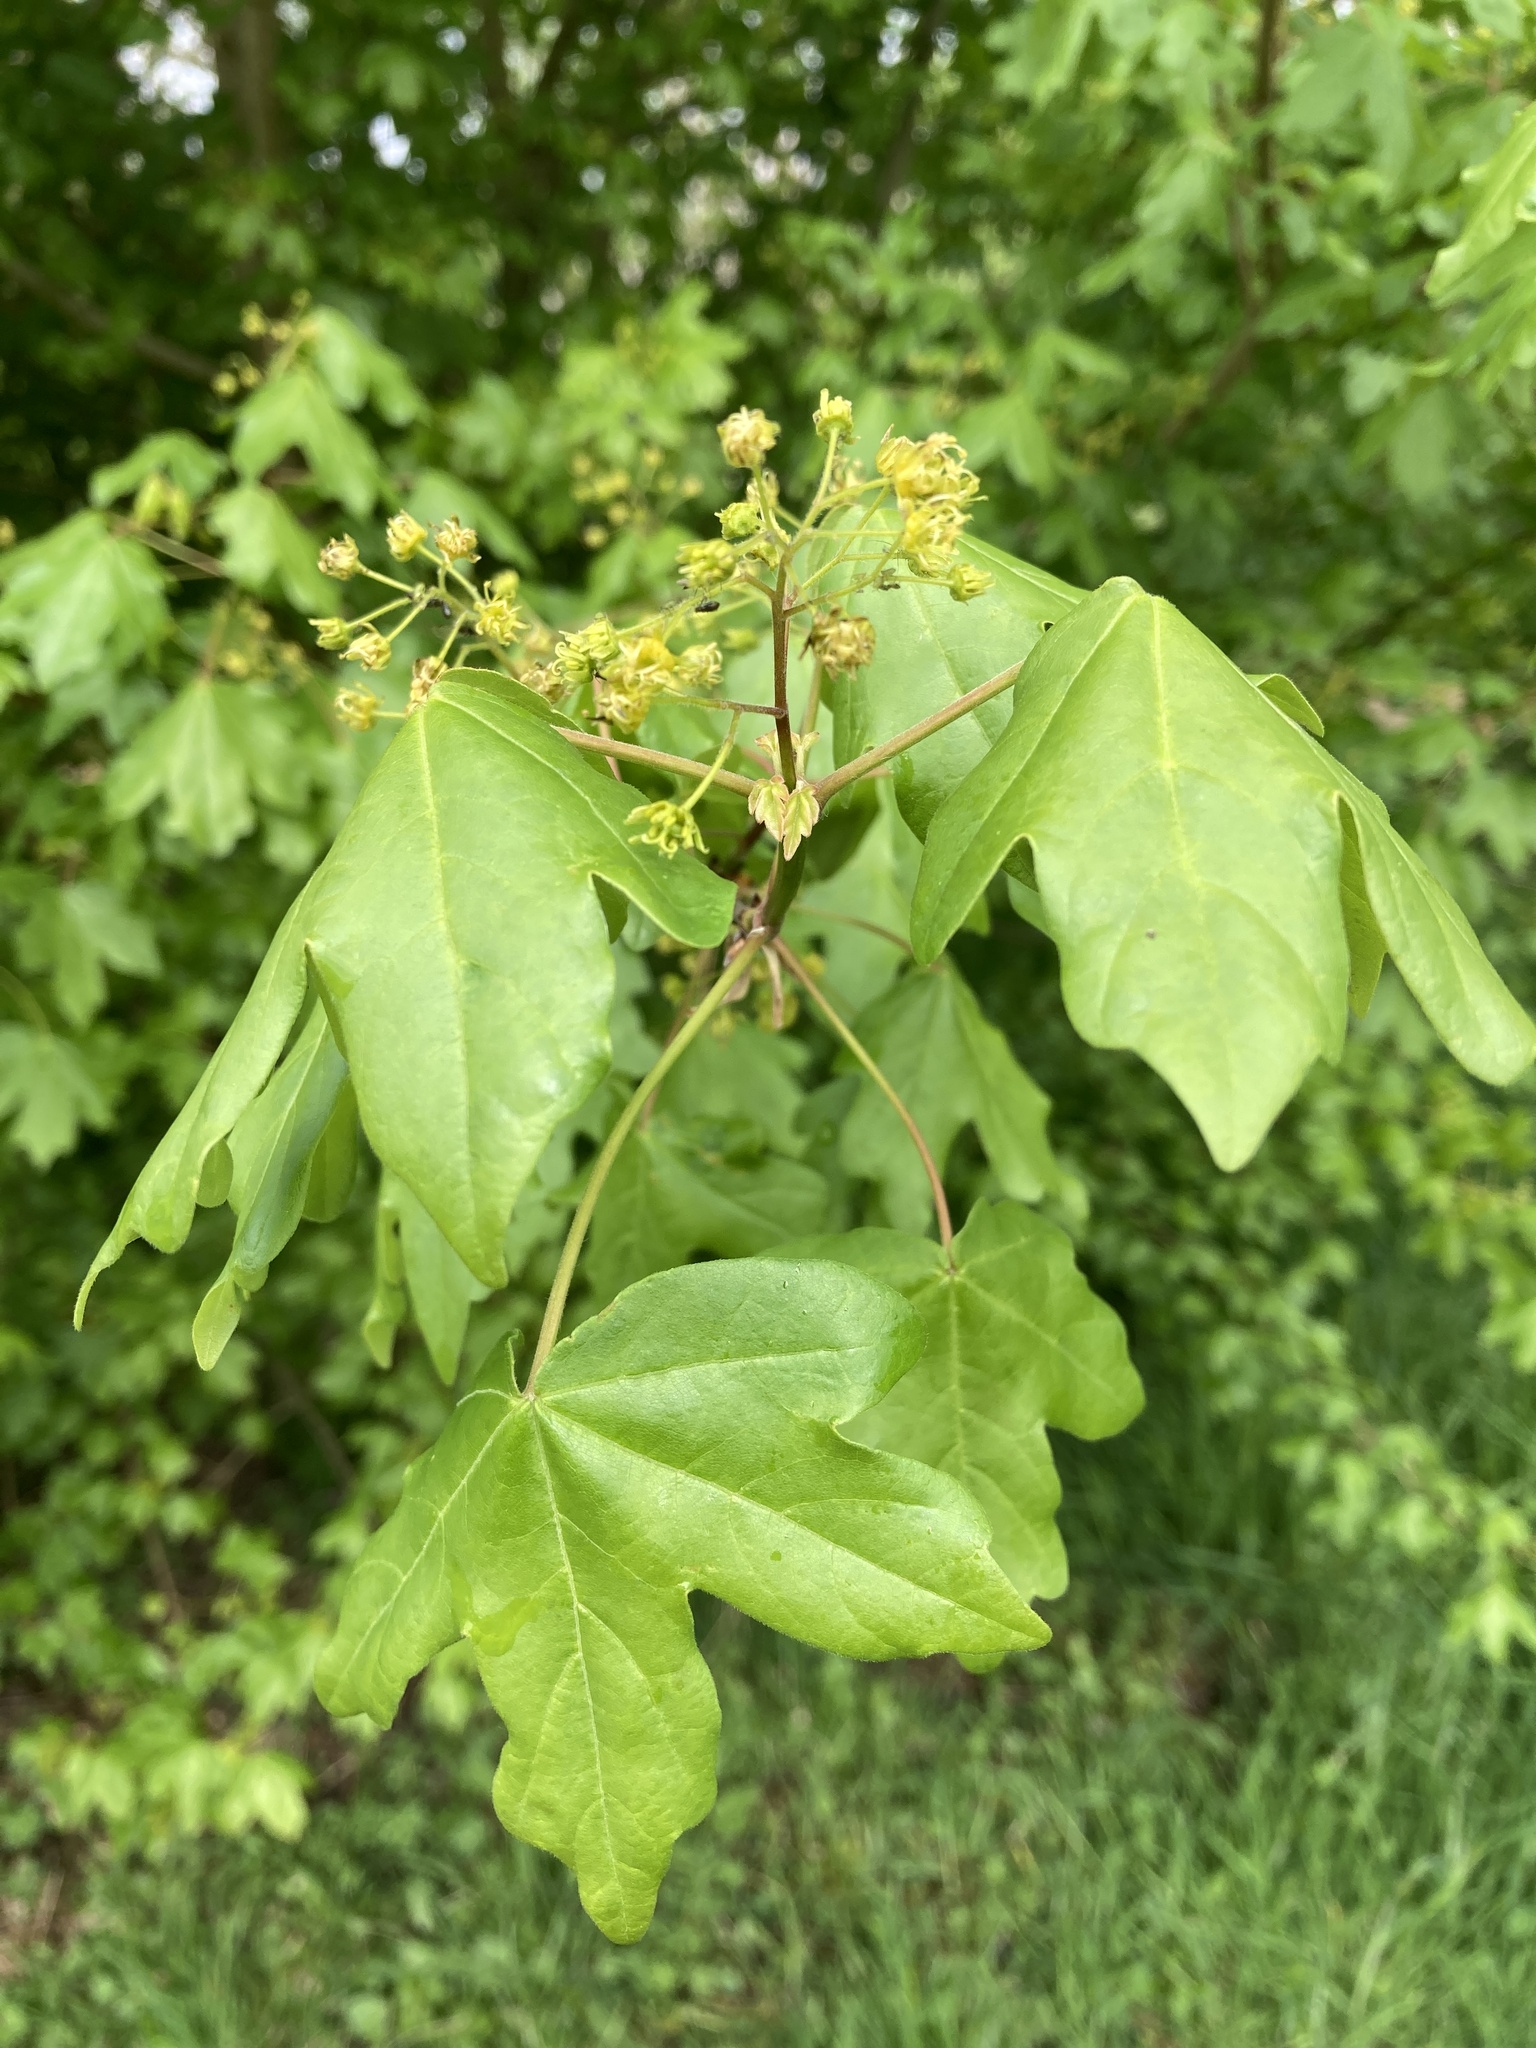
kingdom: Plantae
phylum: Tracheophyta
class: Magnoliopsida
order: Sapindales
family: Sapindaceae
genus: Acer
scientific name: Acer campestre
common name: Field maple
